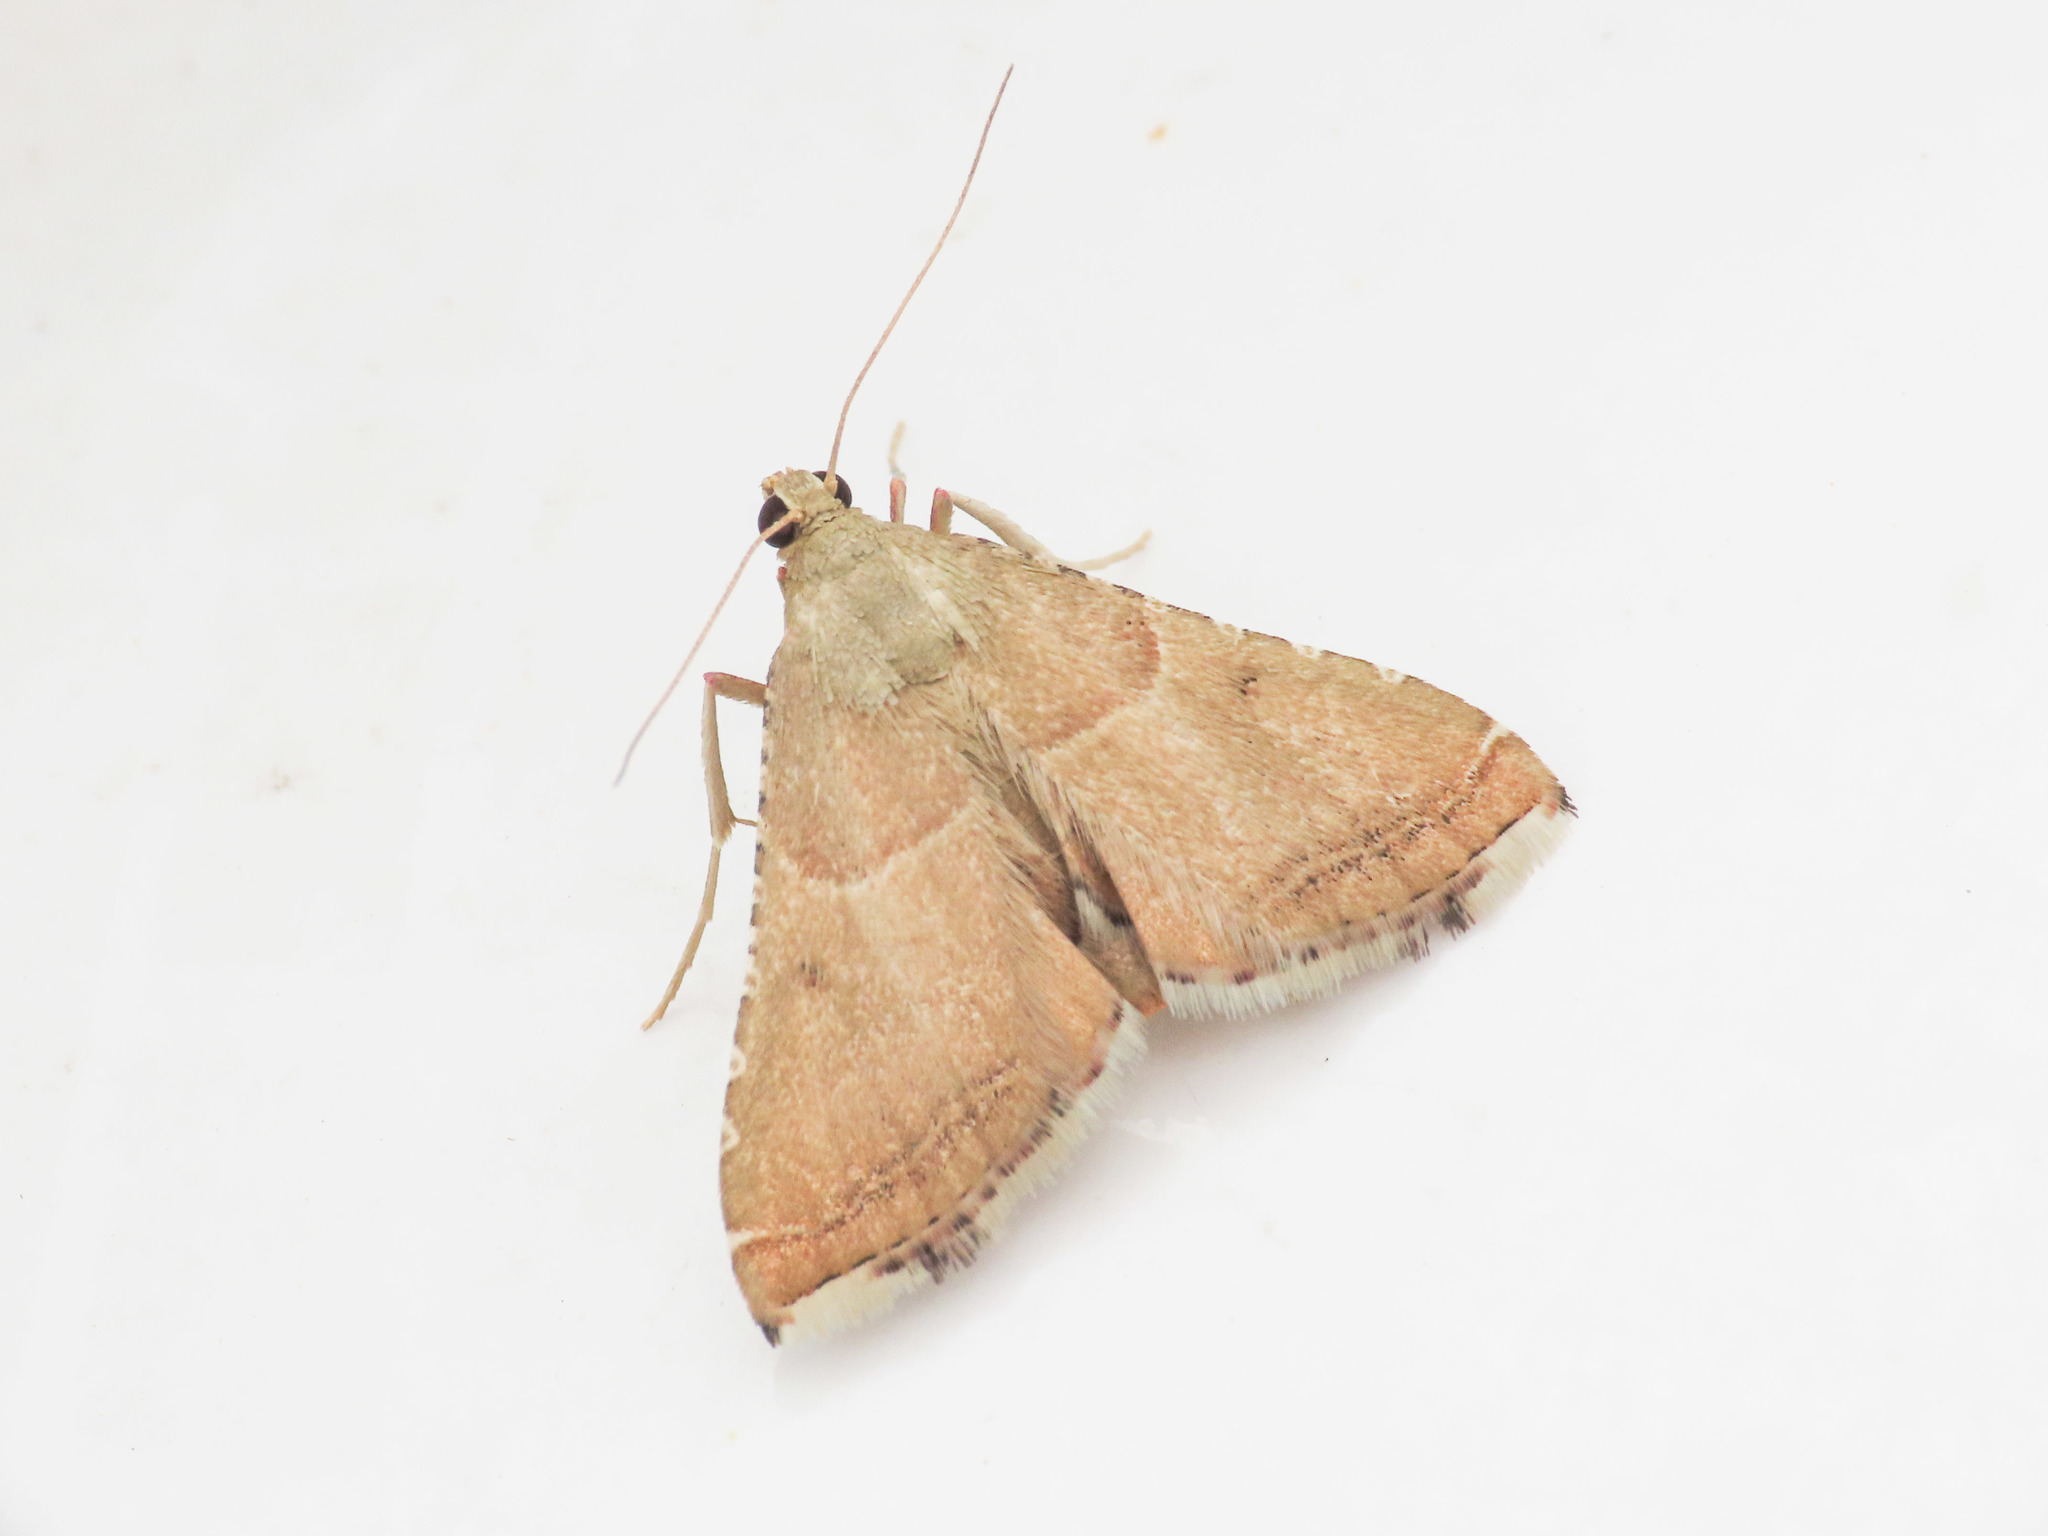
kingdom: Animalia
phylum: Arthropoda
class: Insecta
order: Lepidoptera
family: Pyralidae
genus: Endotricha
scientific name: Endotricha flammealis
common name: Rosy tabby
